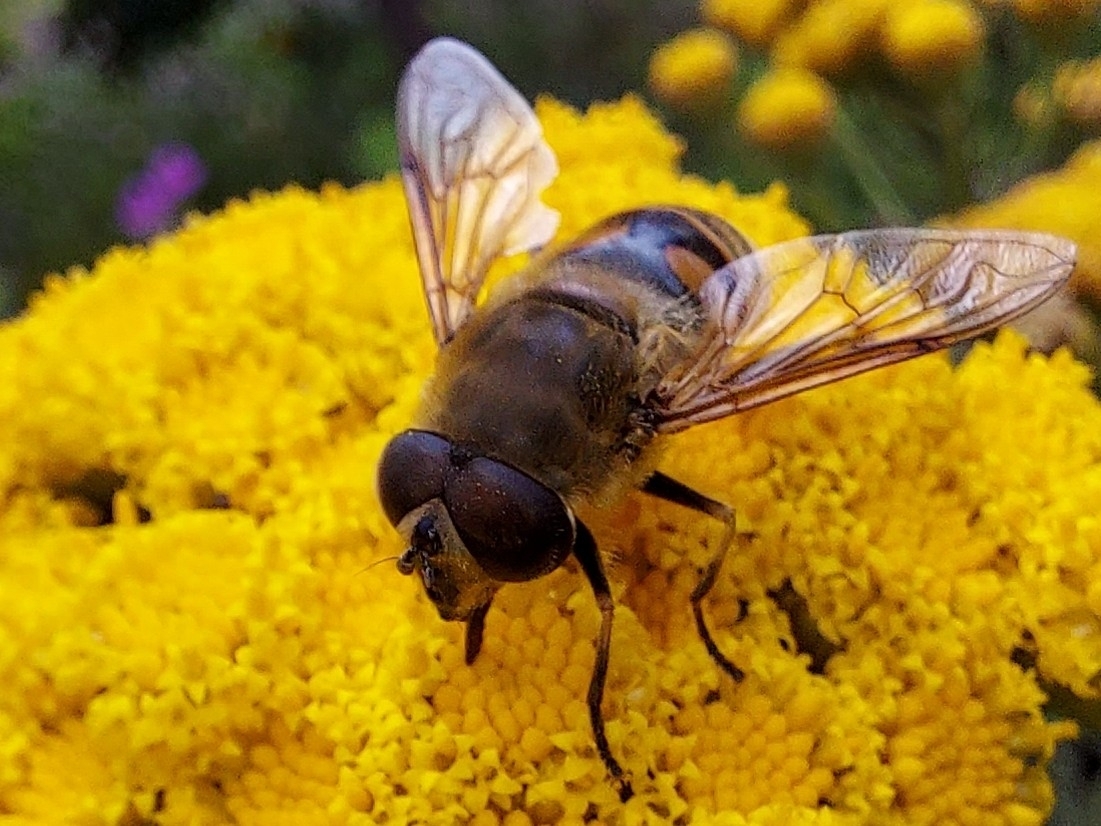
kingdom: Animalia
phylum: Arthropoda
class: Insecta
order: Diptera
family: Syrphidae
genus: Eristalis
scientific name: Eristalis tenax
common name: Drone fly
